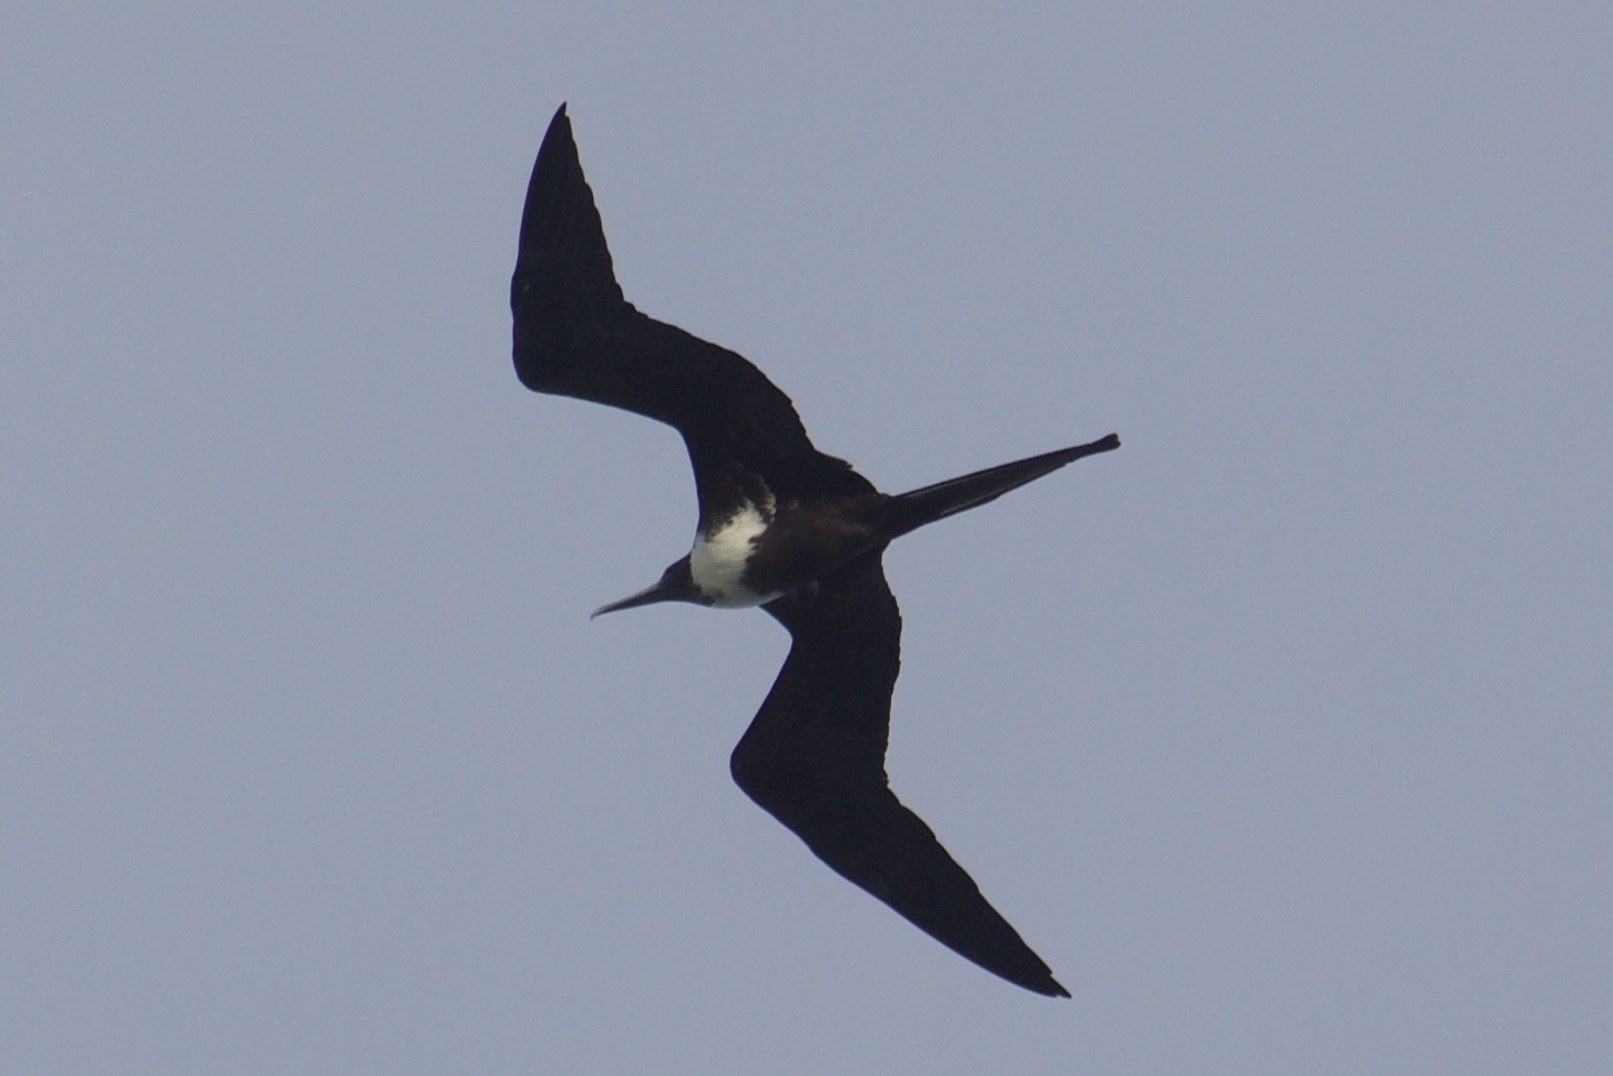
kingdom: Animalia
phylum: Chordata
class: Aves
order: Suliformes
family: Fregatidae
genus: Fregata
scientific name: Fregata magnificens
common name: Magnificent frigatebird
